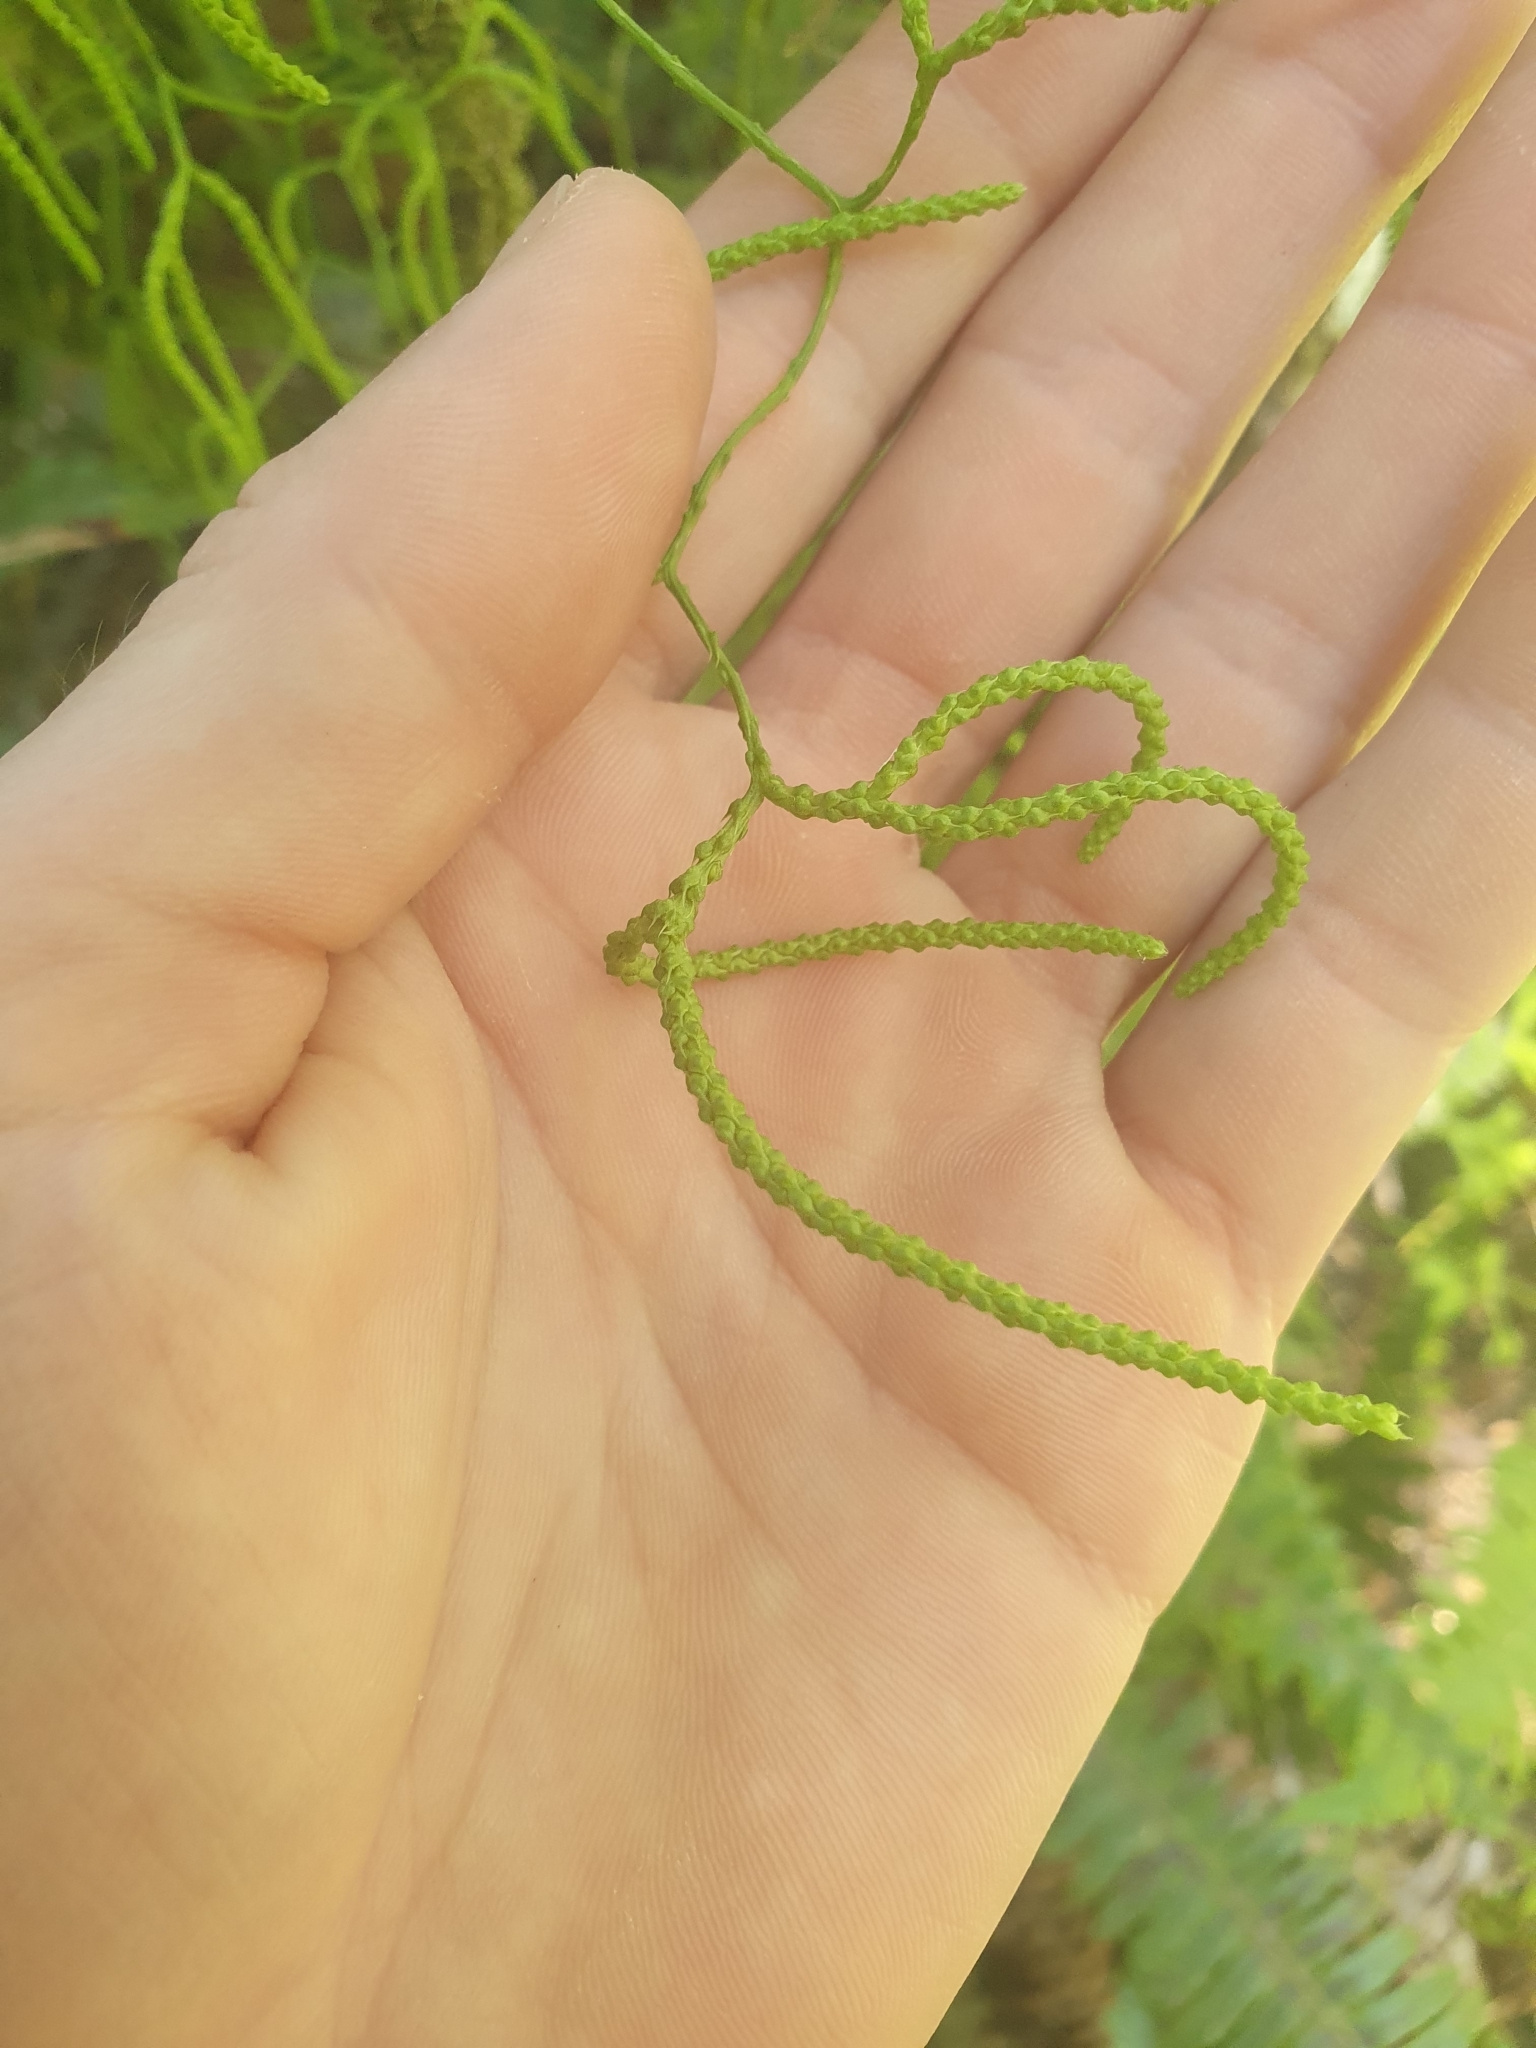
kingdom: Plantae
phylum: Tracheophyta
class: Lycopodiopsida
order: Lycopodiales
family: Lycopodiaceae
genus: Lycopodium
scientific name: Lycopodium volubile
